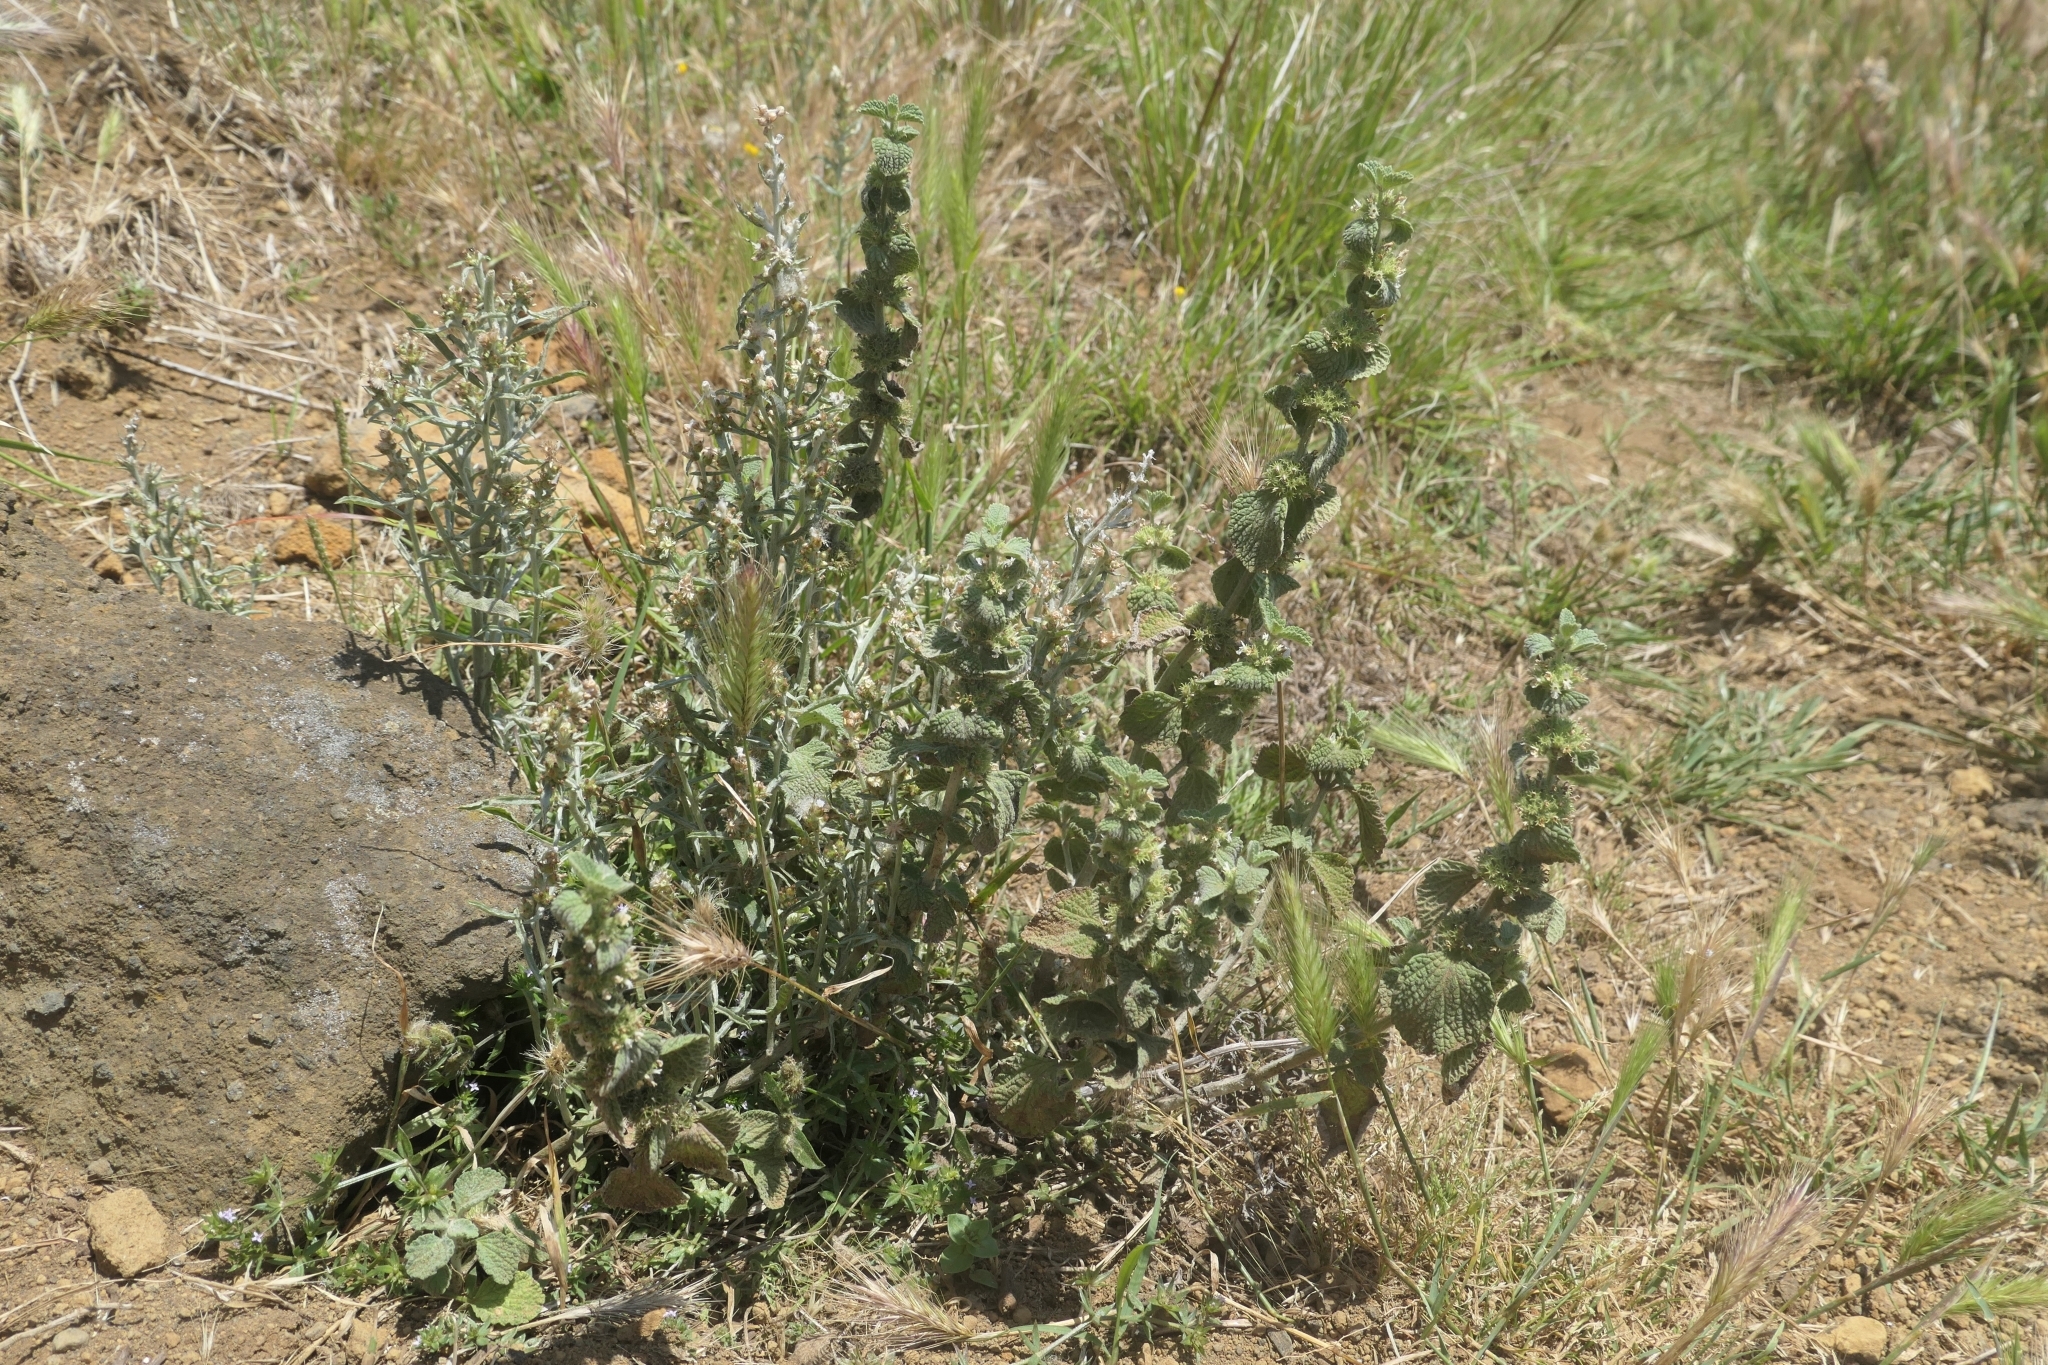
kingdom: Plantae
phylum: Tracheophyta
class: Magnoliopsida
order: Lamiales
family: Lamiaceae
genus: Marrubium
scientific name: Marrubium vulgare
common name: Horehound
